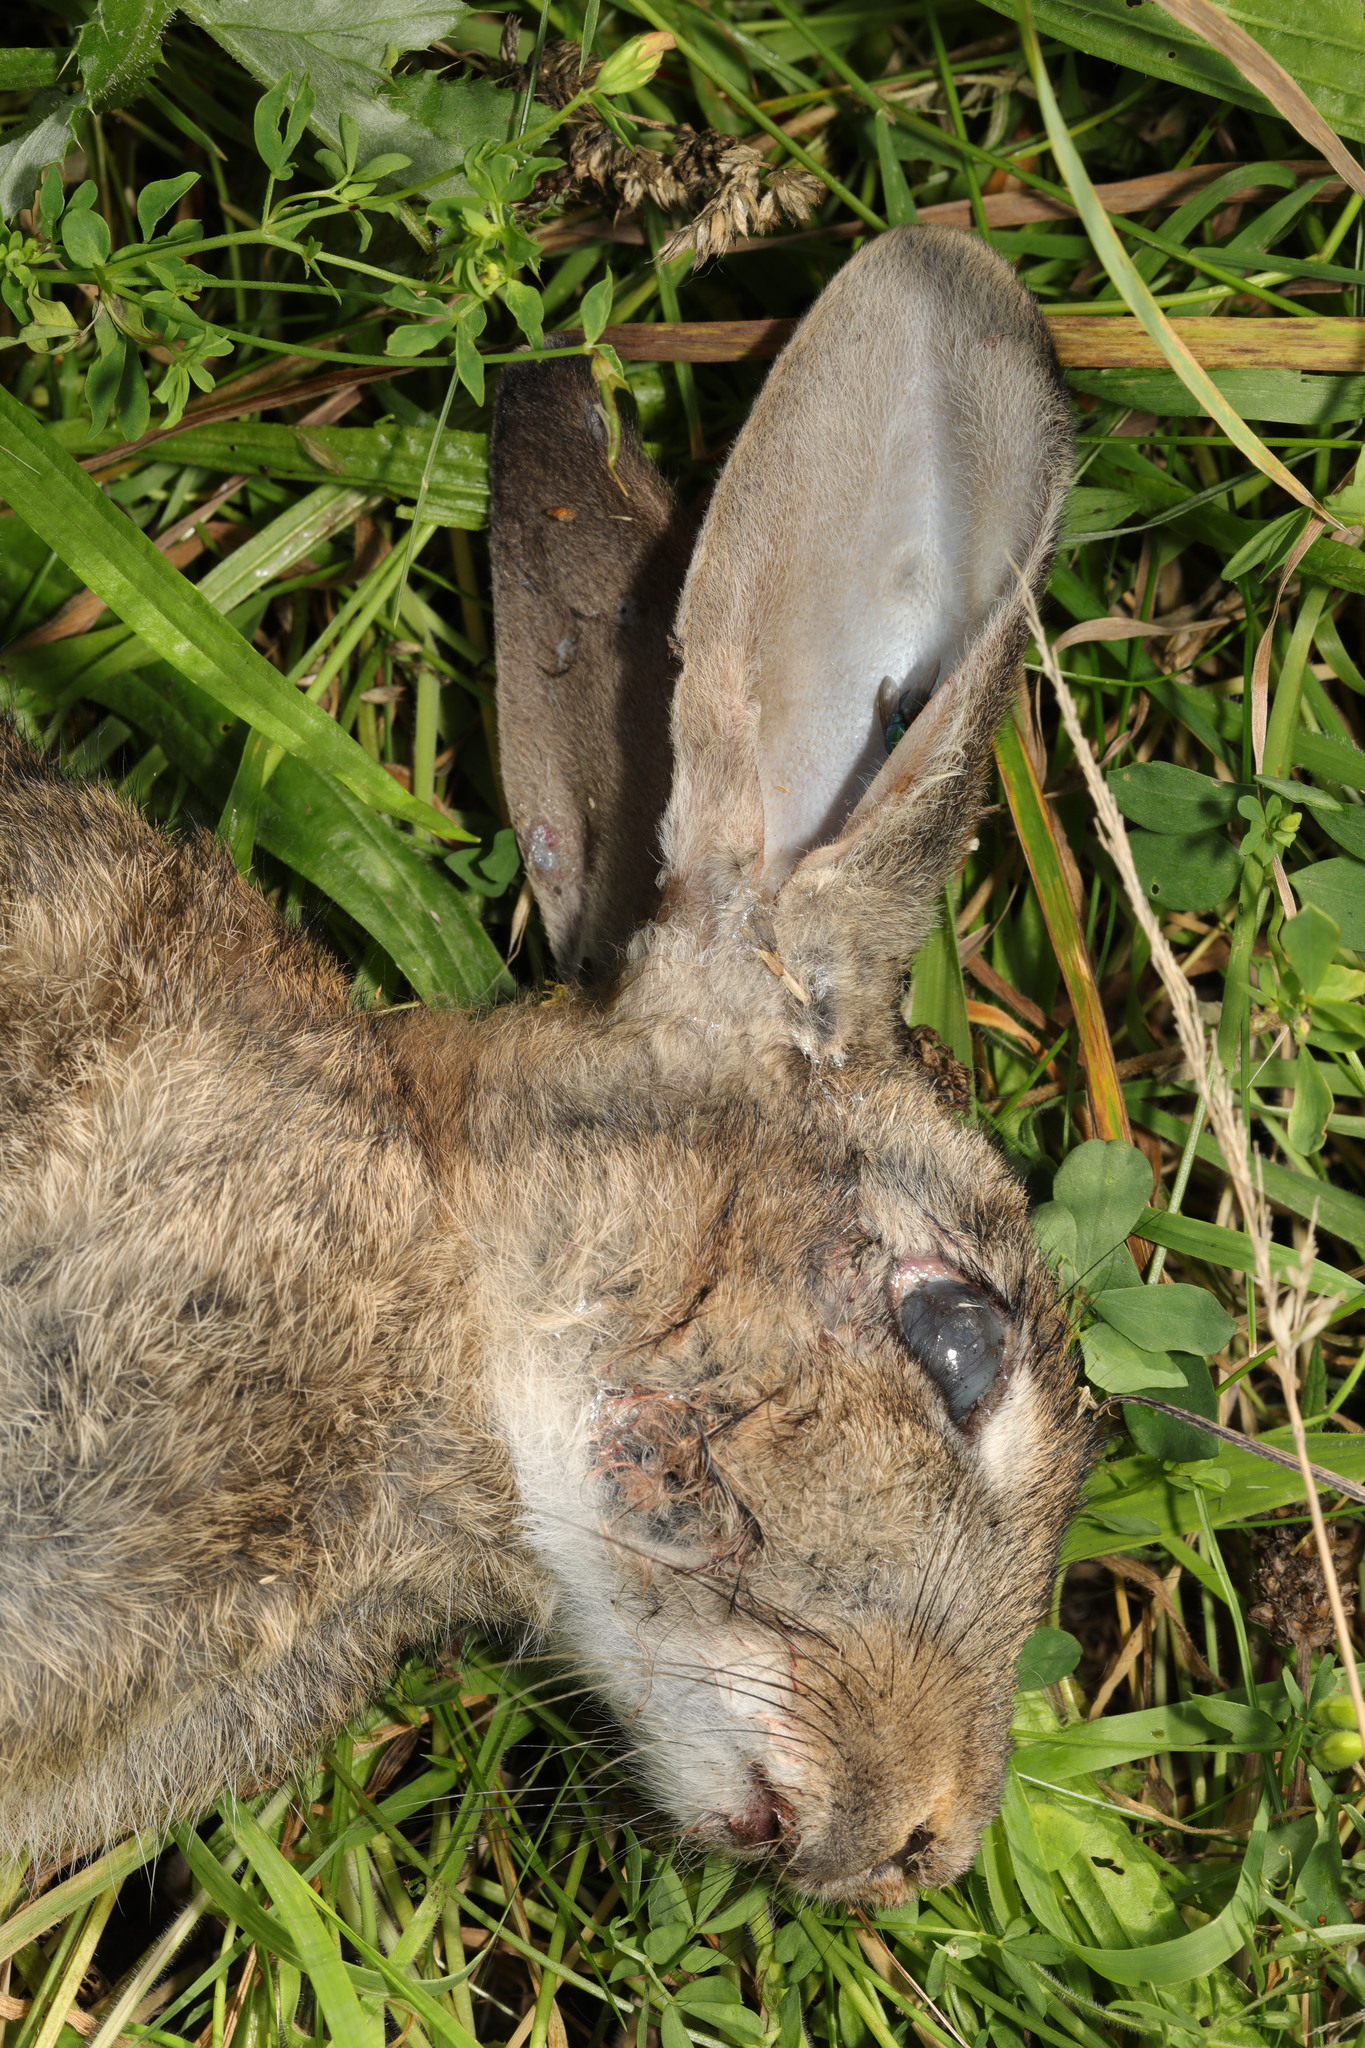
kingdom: Animalia
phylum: Chordata
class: Mammalia
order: Lagomorpha
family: Leporidae
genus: Oryctolagus
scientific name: Oryctolagus cuniculus
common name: European rabbit
